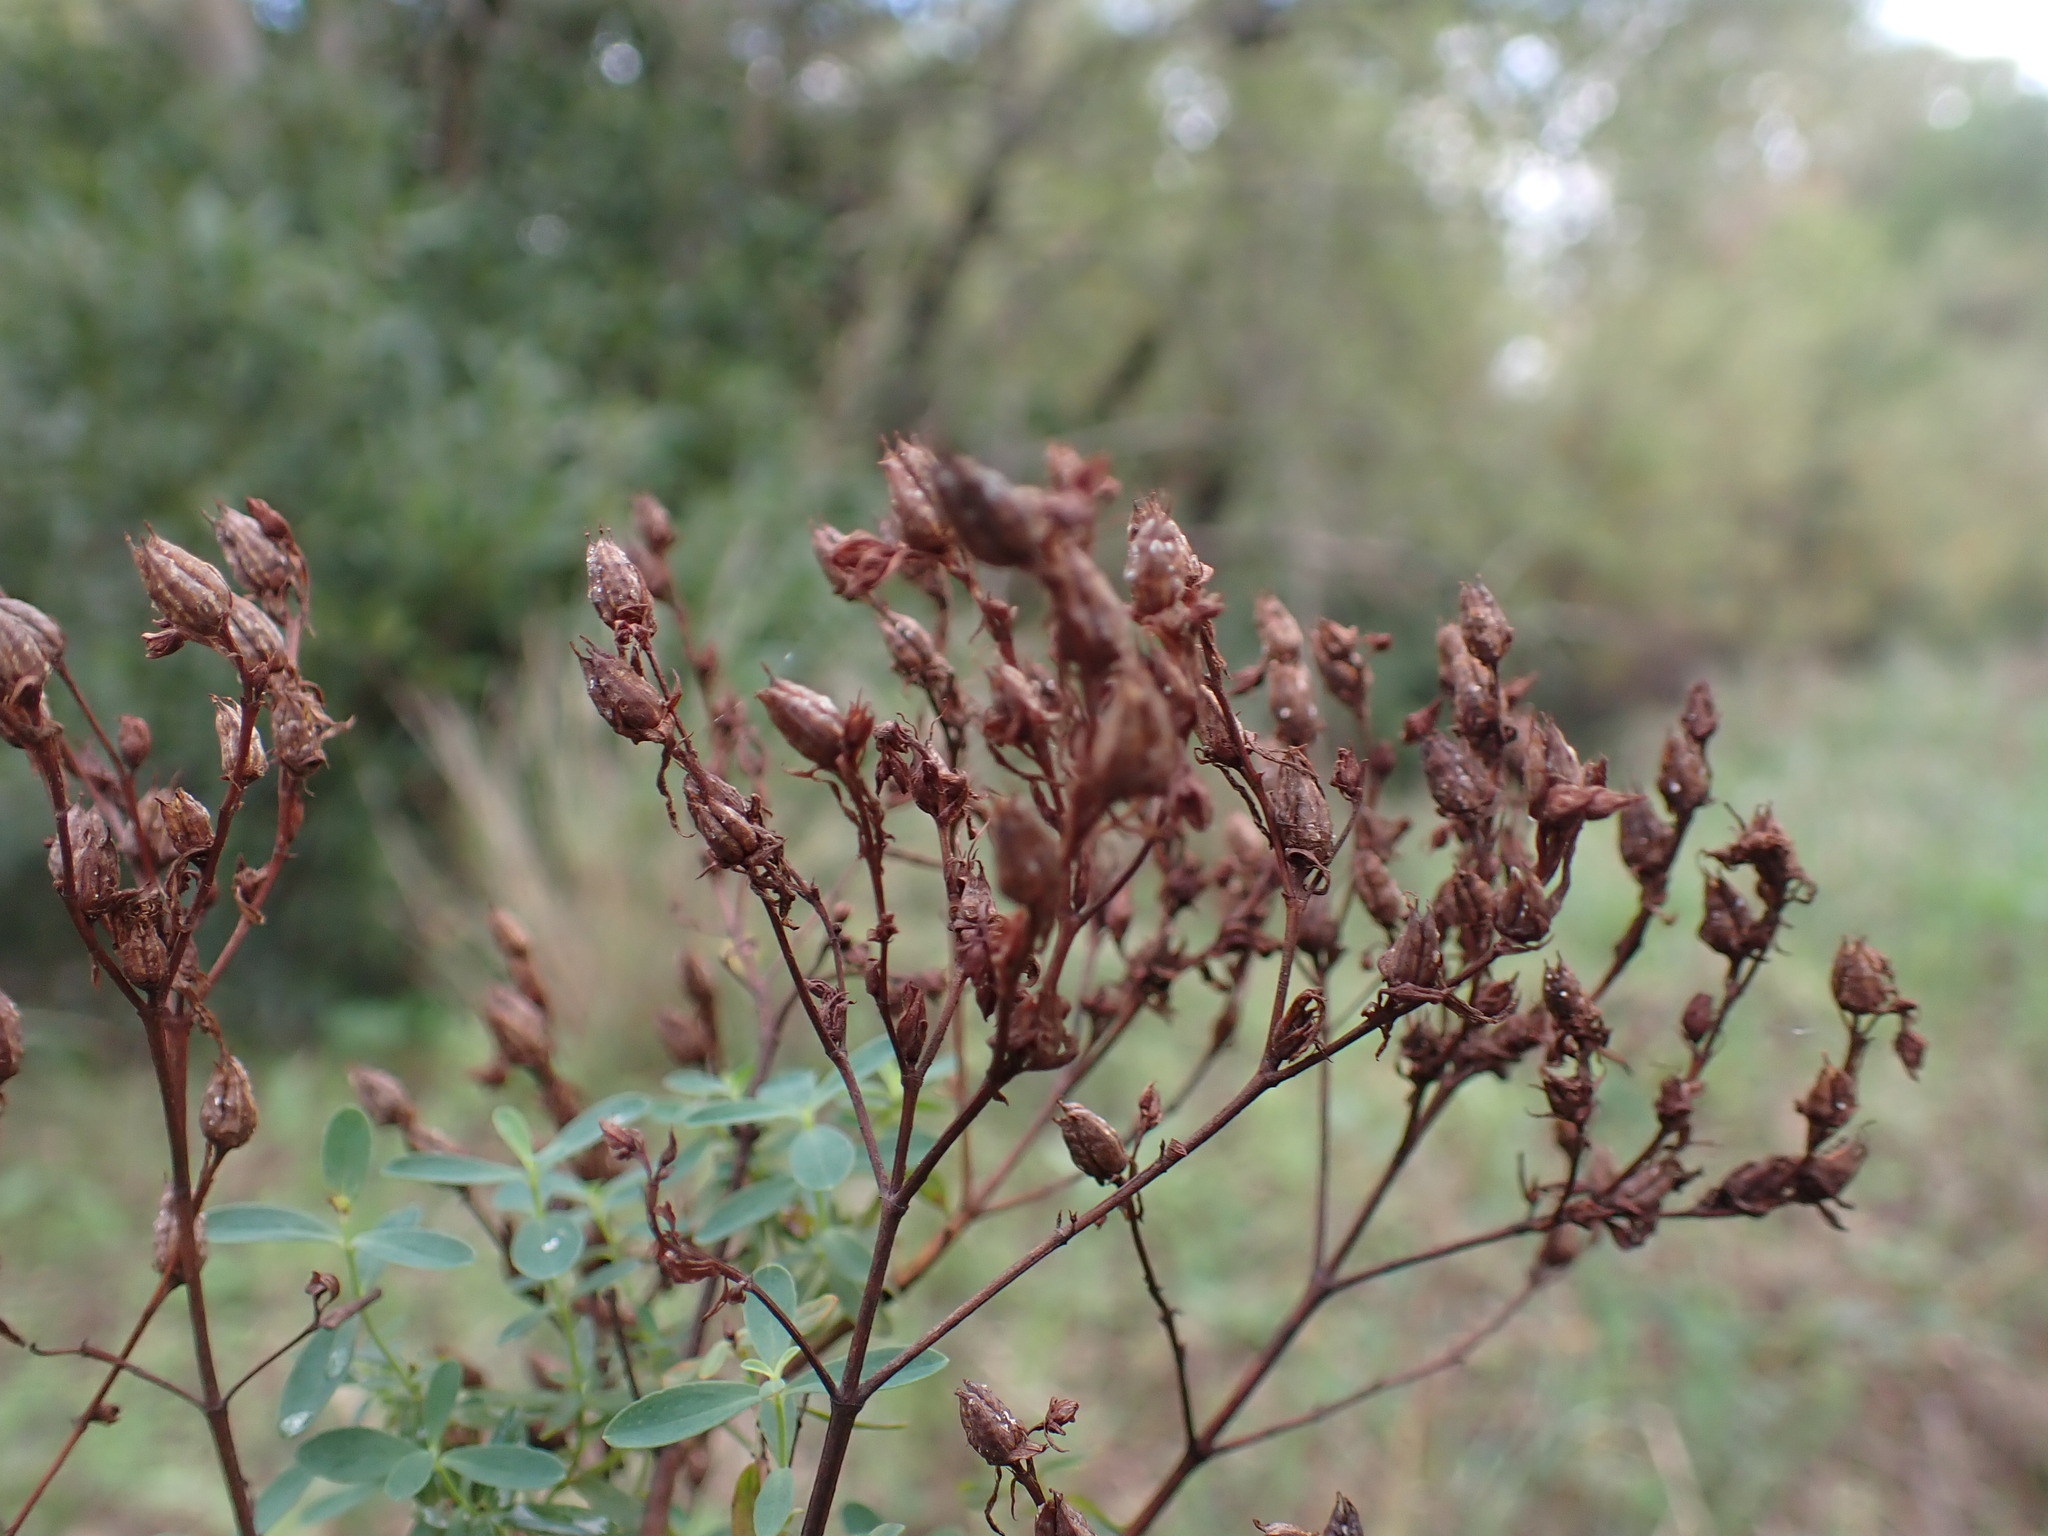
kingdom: Plantae
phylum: Tracheophyta
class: Magnoliopsida
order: Malpighiales
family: Hypericaceae
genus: Hypericum
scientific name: Hypericum perforatum
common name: Common st. johnswort
